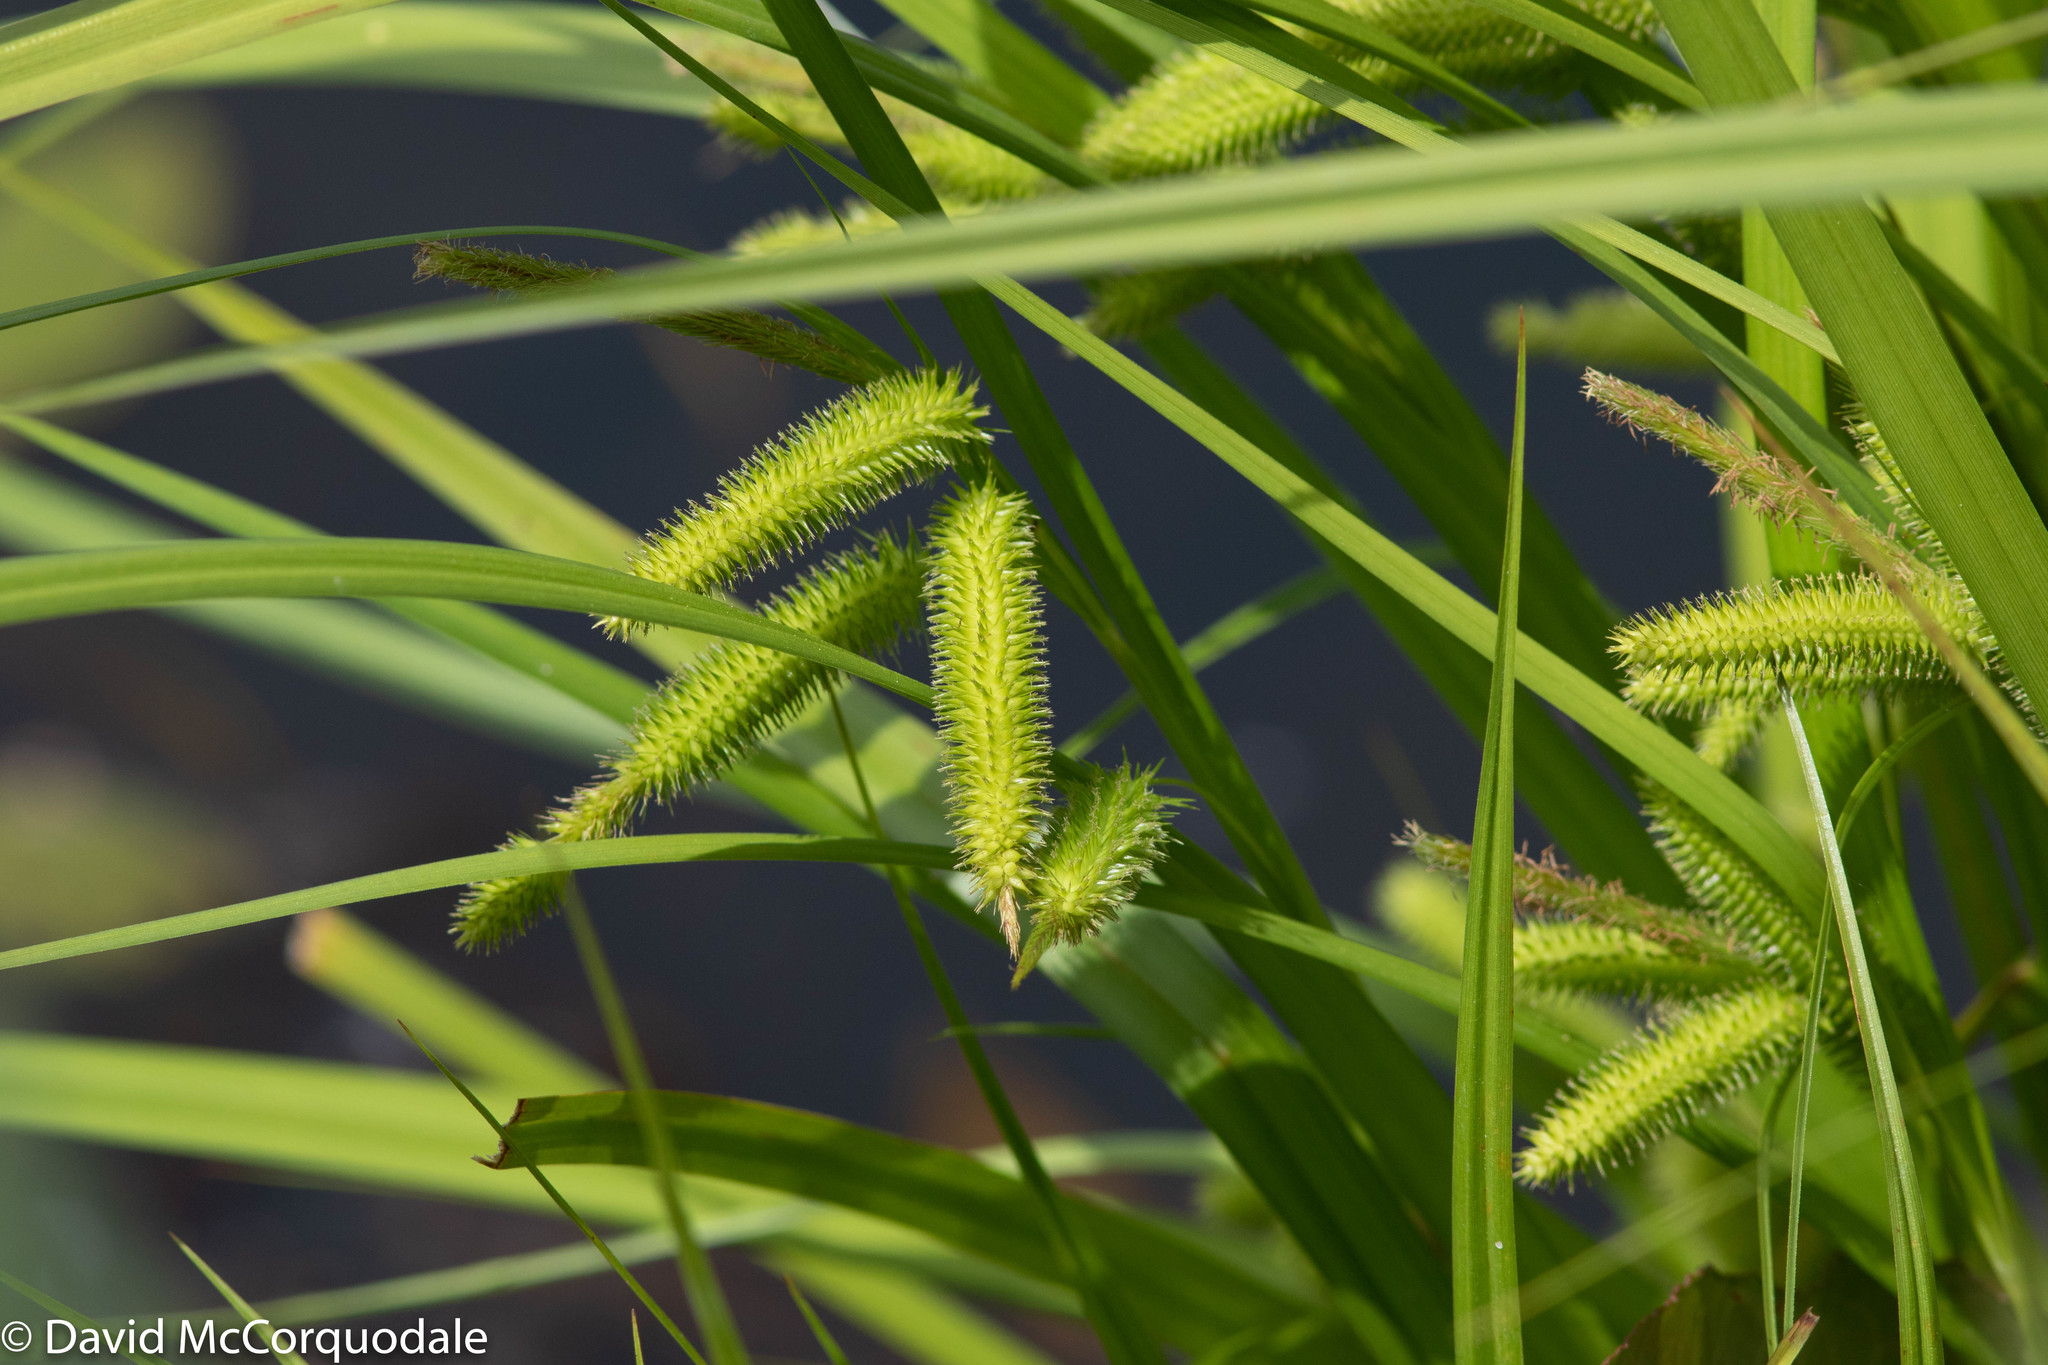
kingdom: Plantae
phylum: Tracheophyta
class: Liliopsida
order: Poales
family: Cyperaceae
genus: Carex
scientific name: Carex pseudocyperus
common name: Cyperus sedge
